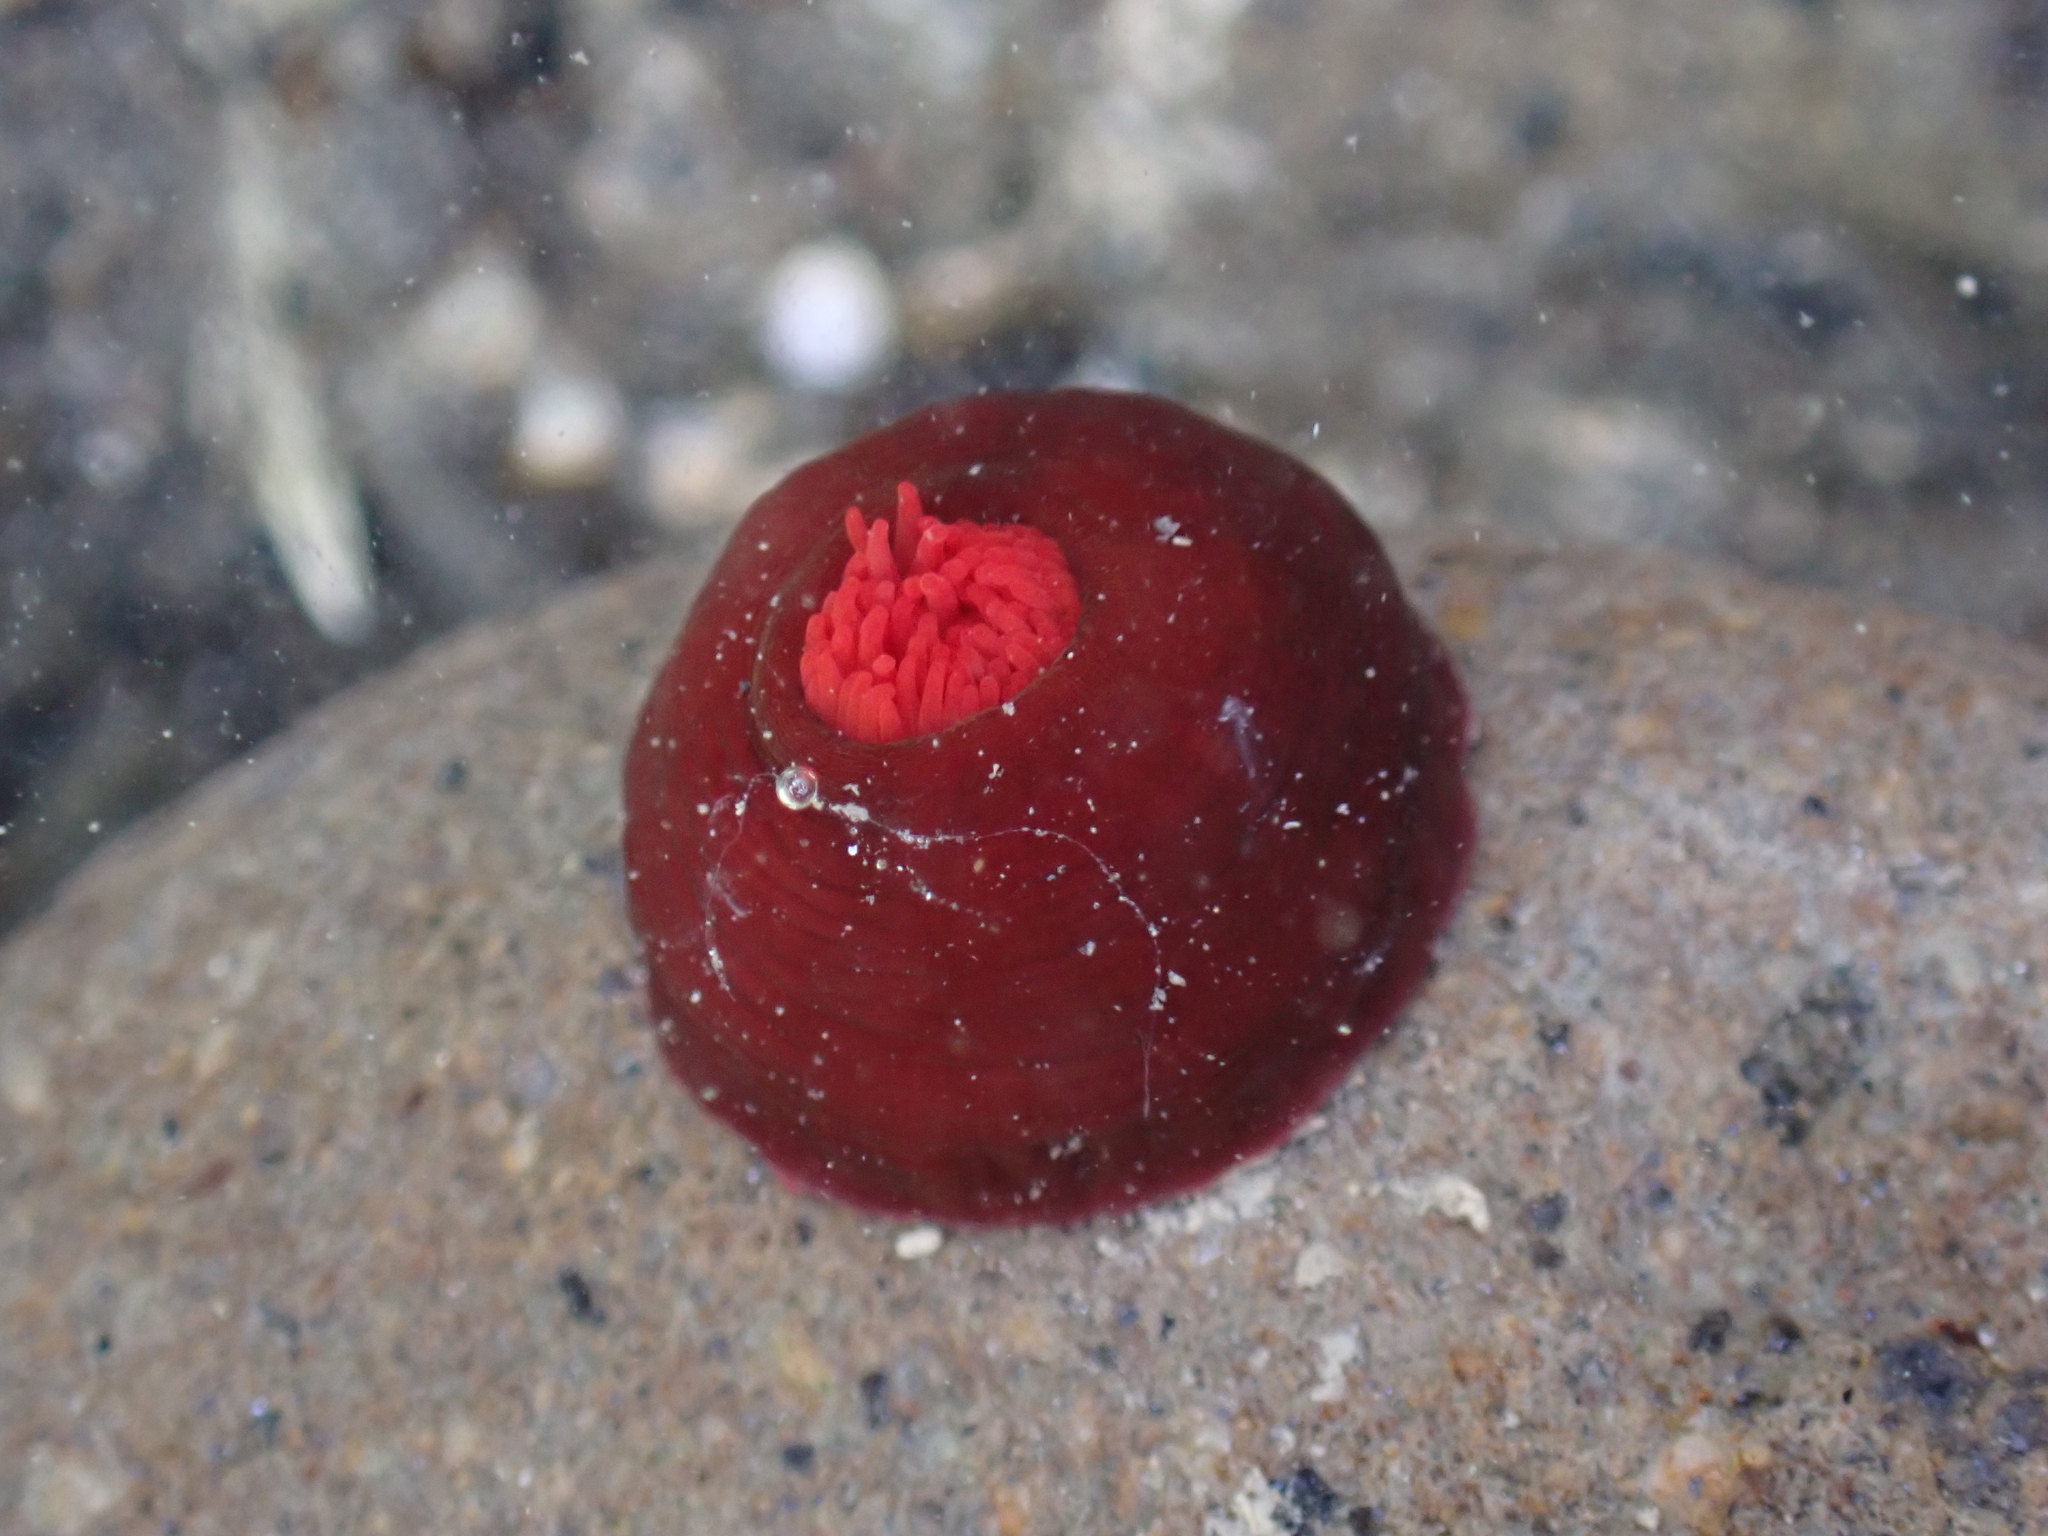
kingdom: Animalia
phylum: Cnidaria
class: Anthozoa
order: Actiniaria
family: Actiniidae
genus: Actinia
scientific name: Actinia tenebrosa
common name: Waratah anemone
